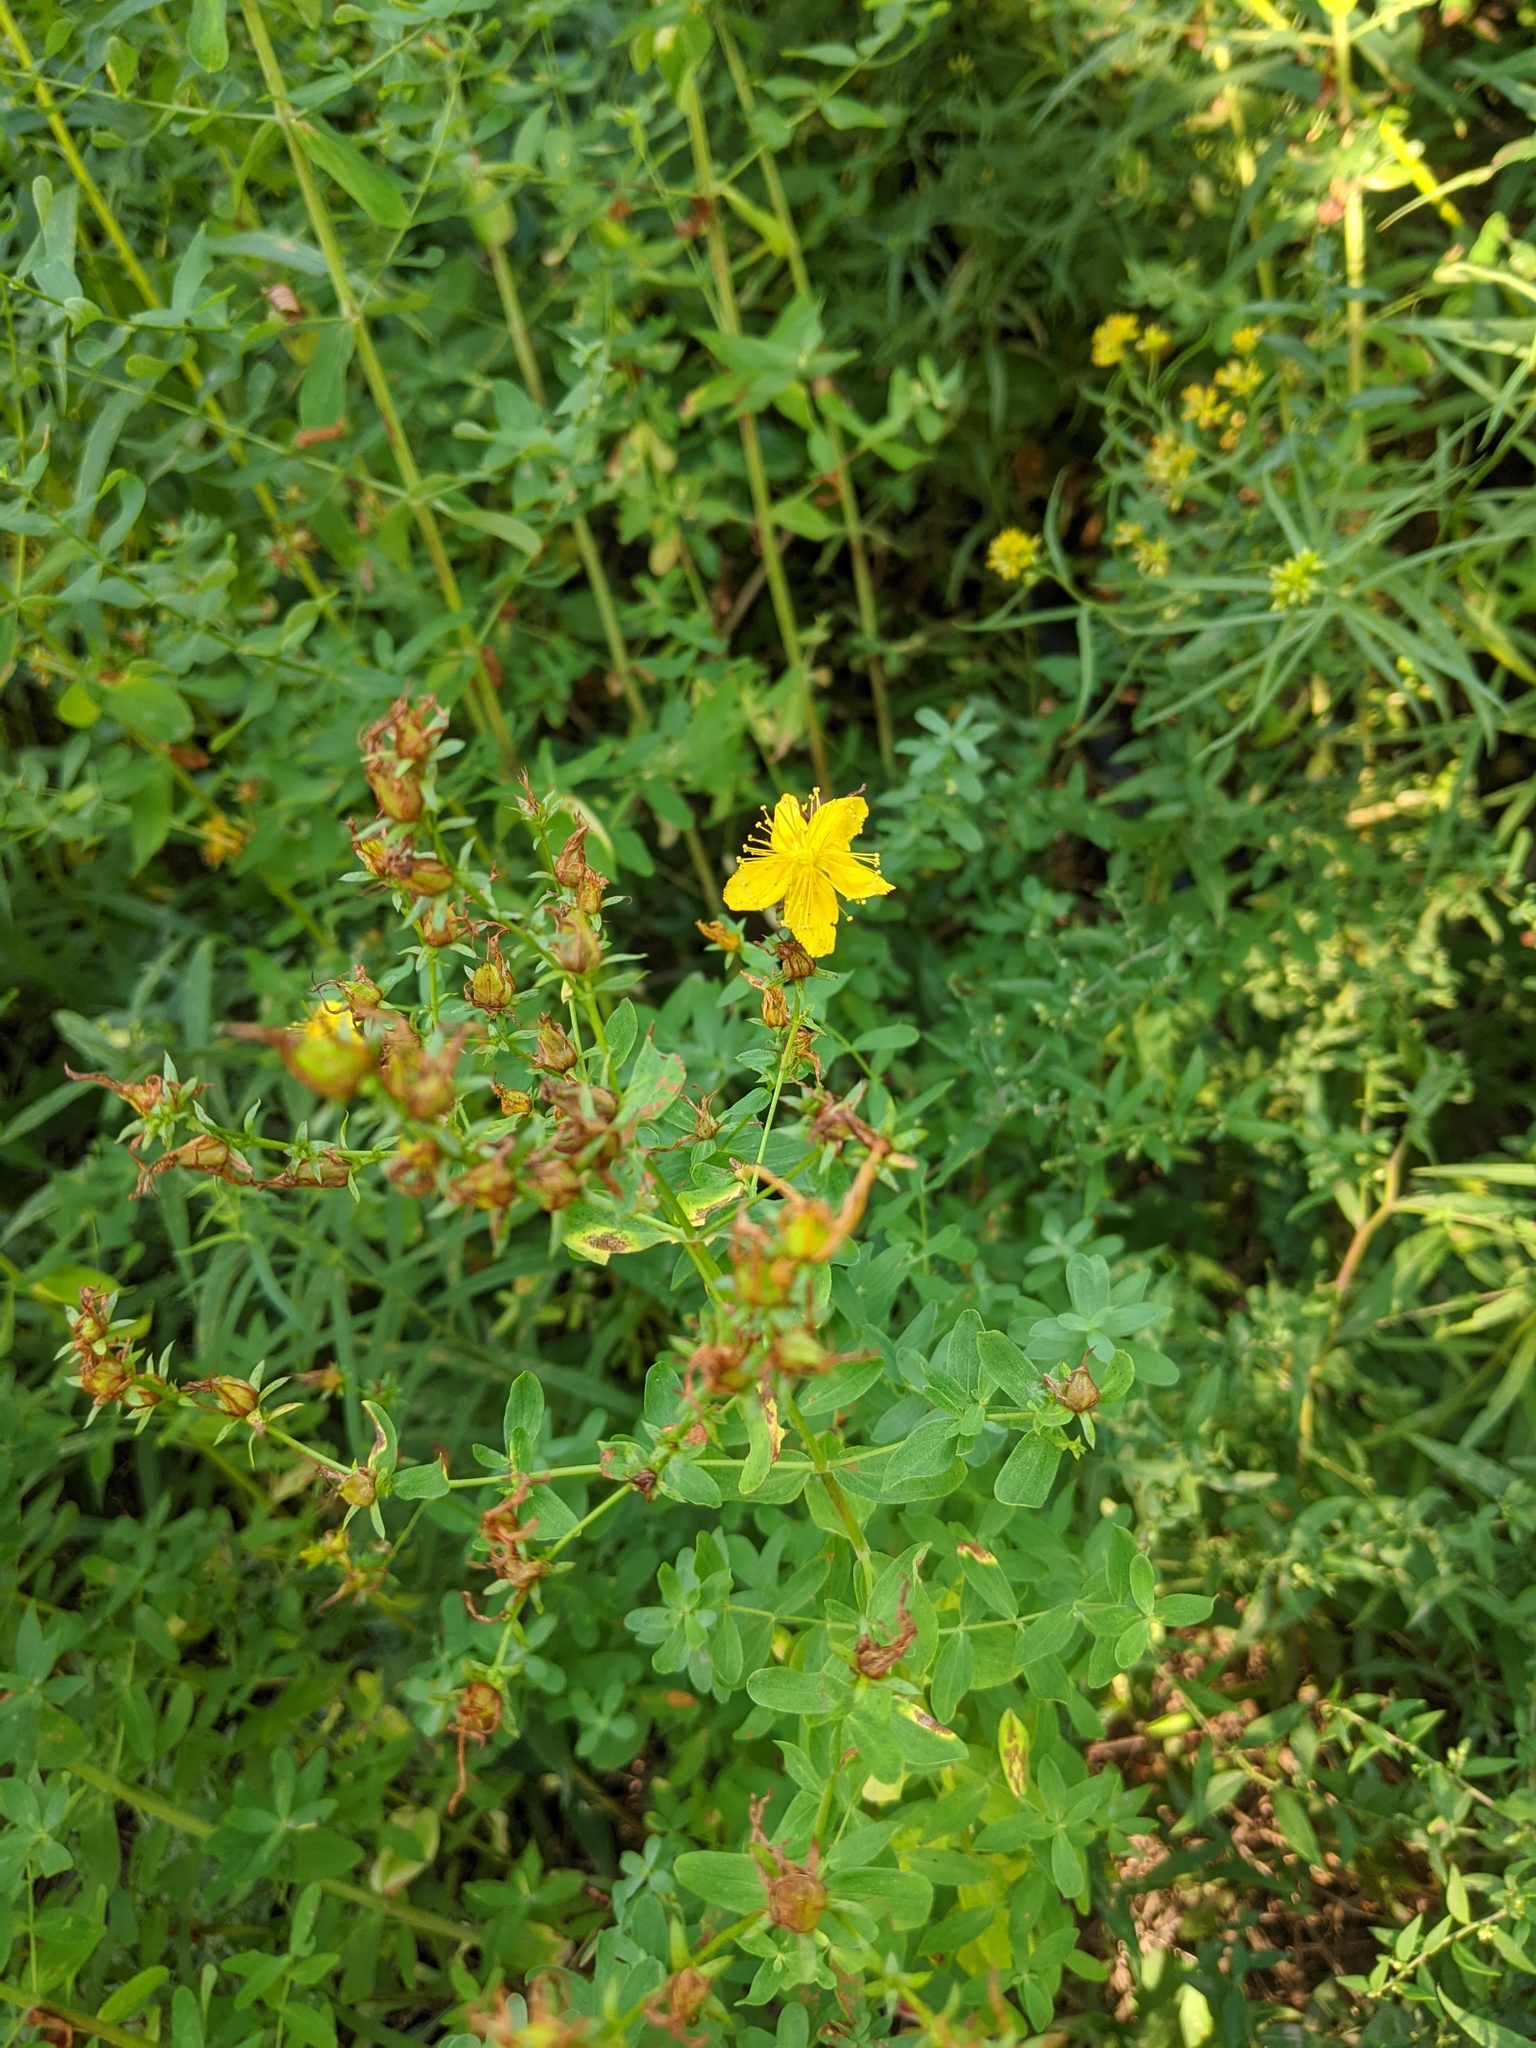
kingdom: Plantae
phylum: Tracheophyta
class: Magnoliopsida
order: Malpighiales
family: Hypericaceae
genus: Hypericum
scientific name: Hypericum perforatum
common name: Common st. johnswort
